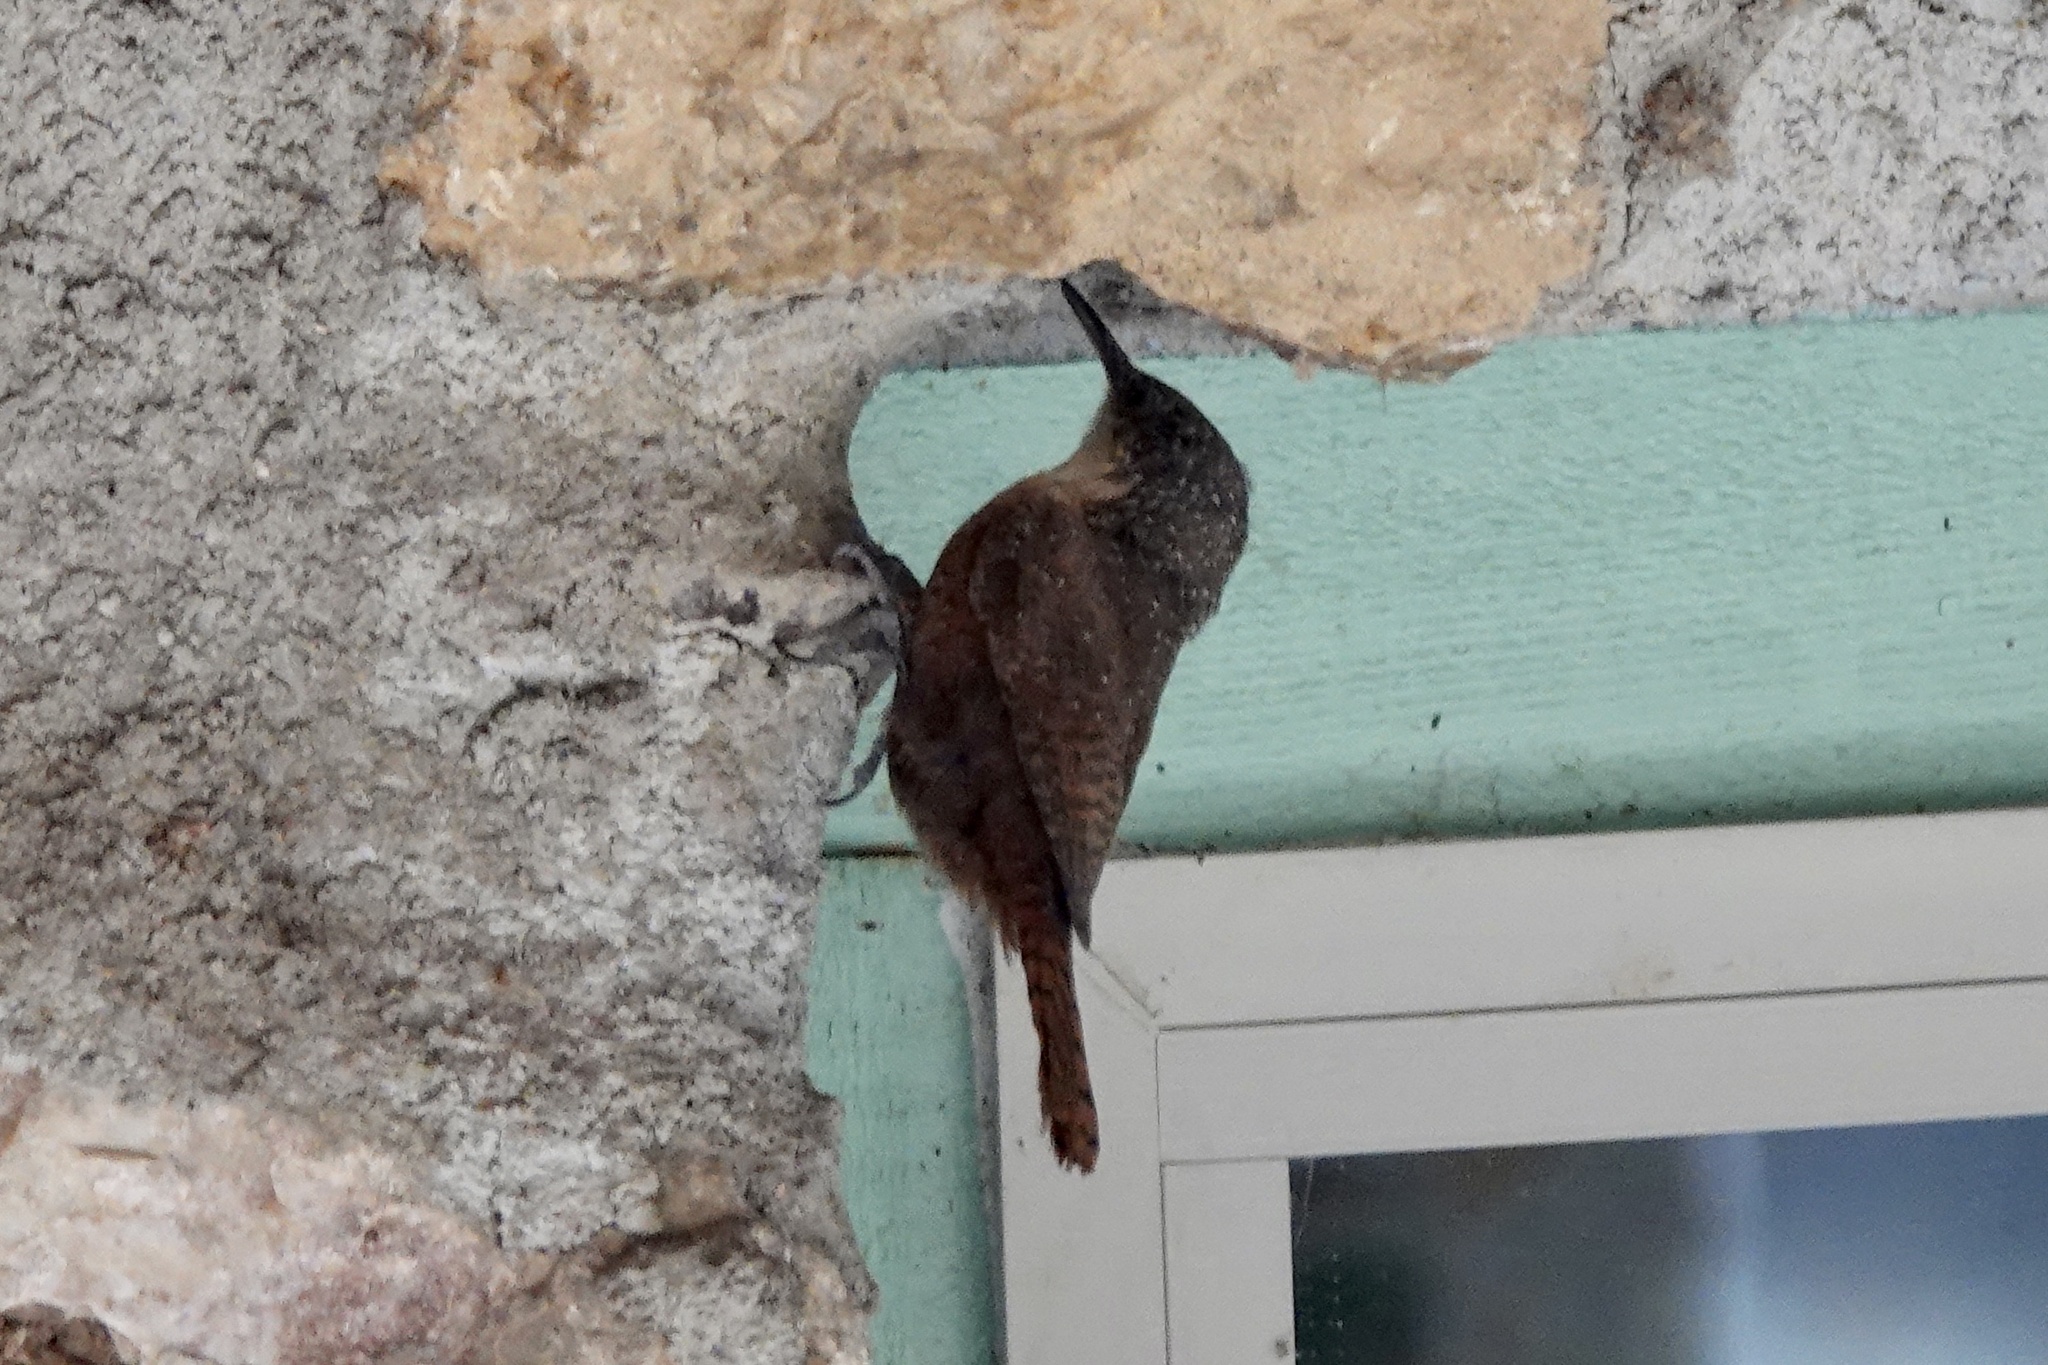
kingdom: Animalia
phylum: Chordata
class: Aves
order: Passeriformes
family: Troglodytidae
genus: Catherpes
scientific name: Catherpes mexicanus
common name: Canyon wren
